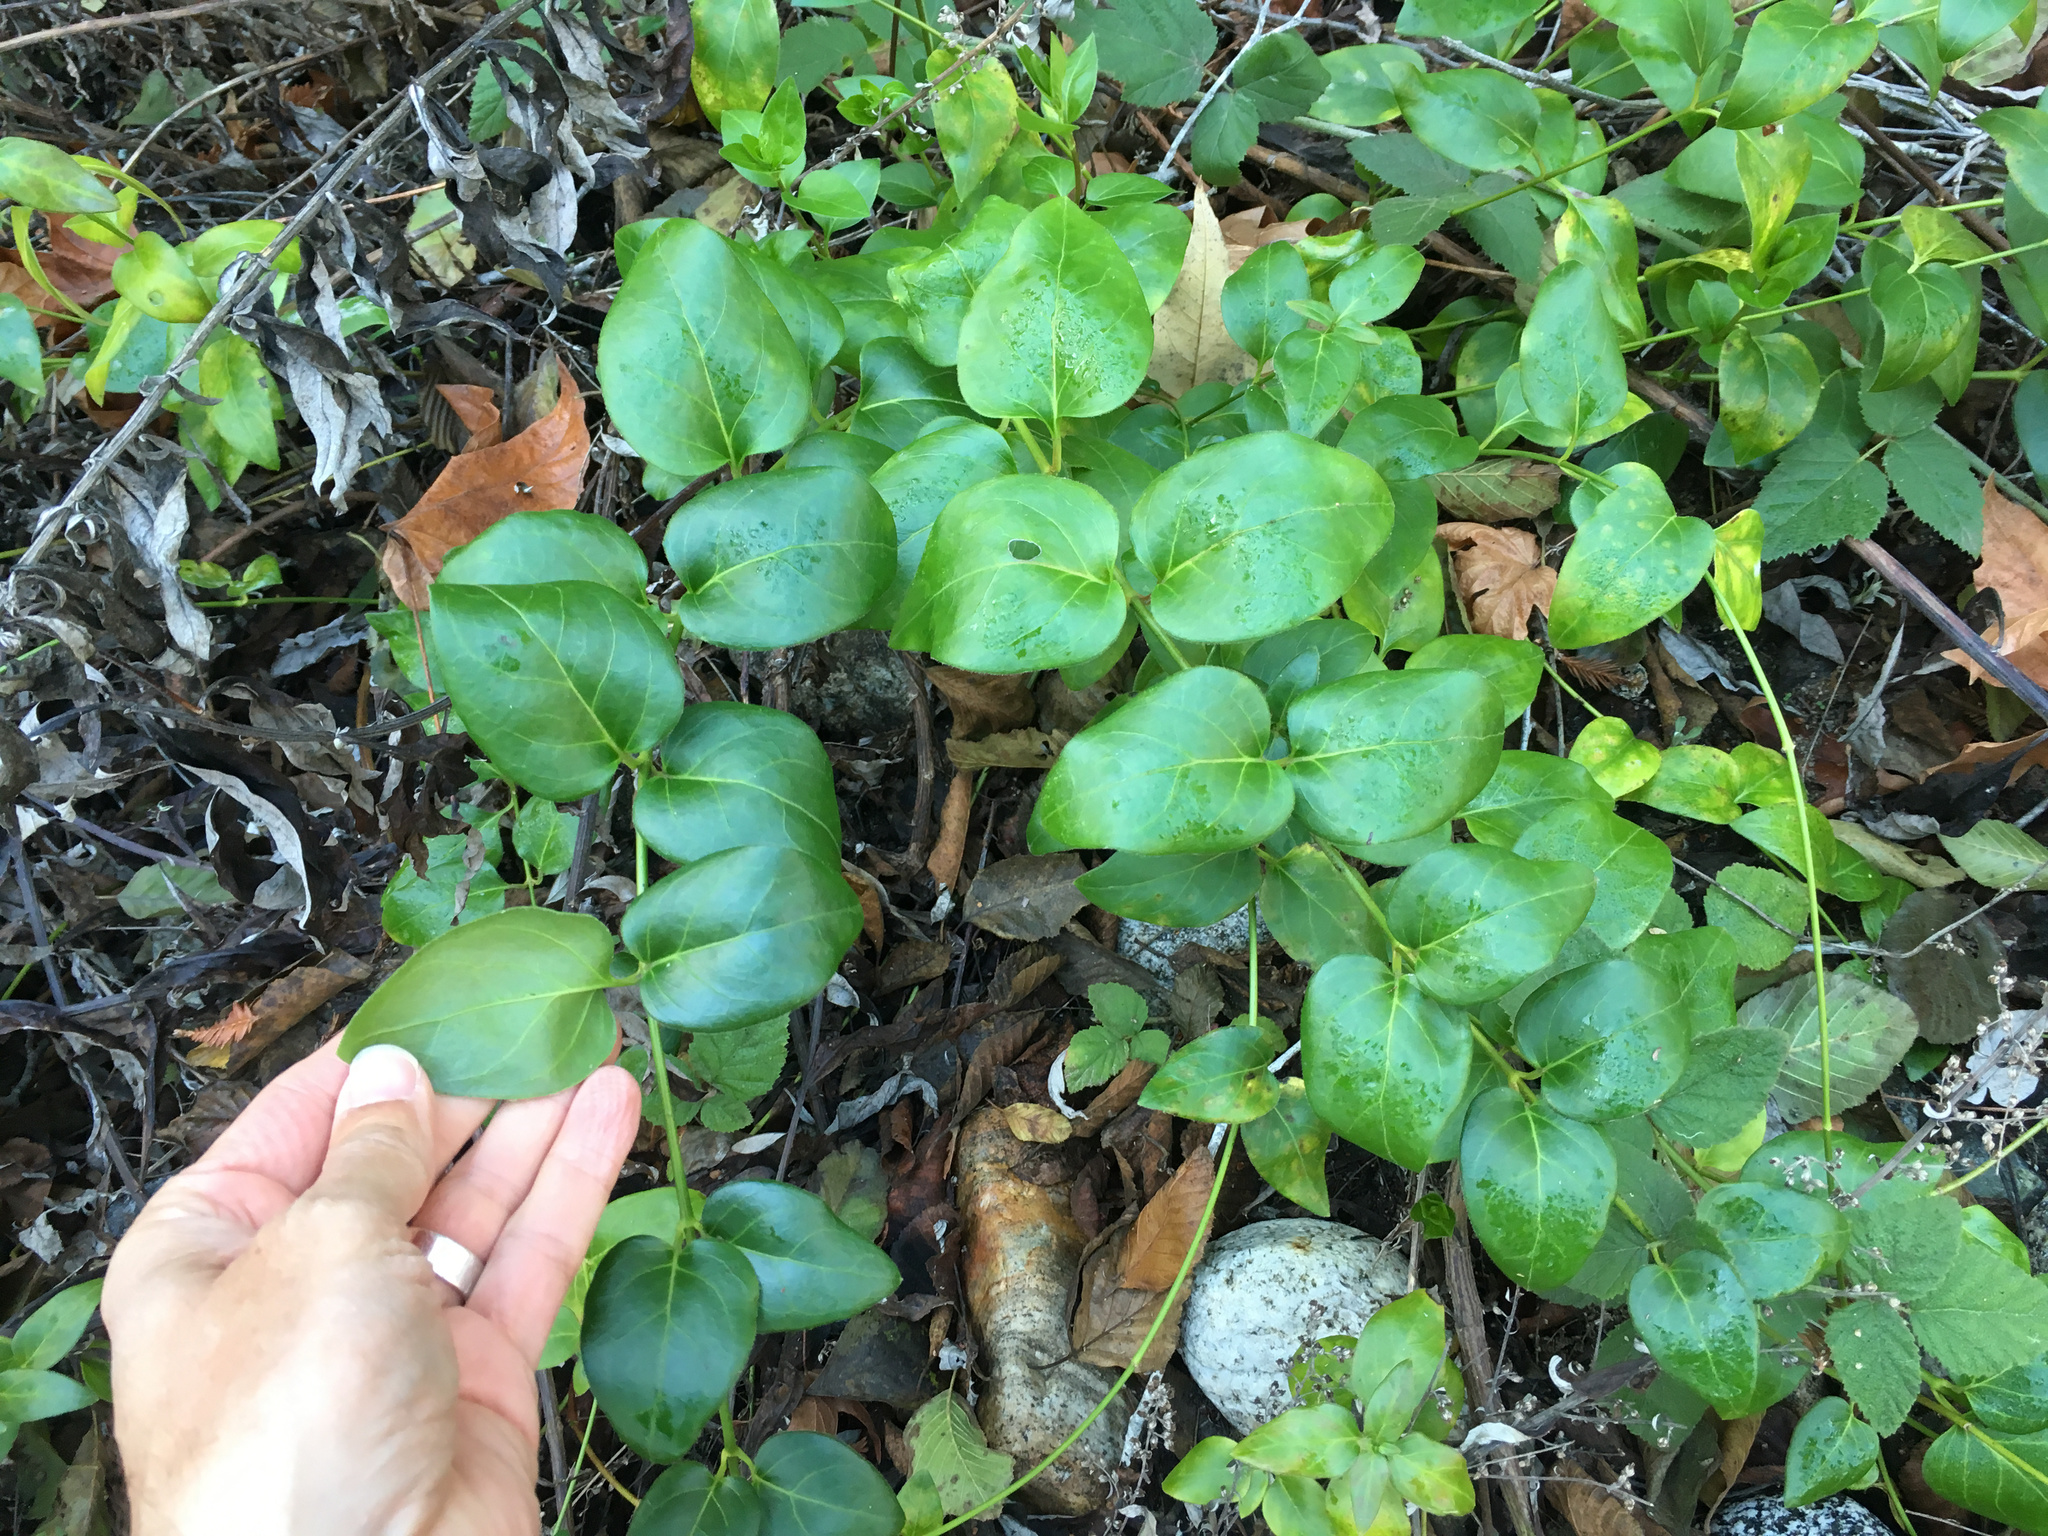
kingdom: Plantae
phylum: Tracheophyta
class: Magnoliopsida
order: Gentianales
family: Apocynaceae
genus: Vinca
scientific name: Vinca major
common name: Greater periwinkle
